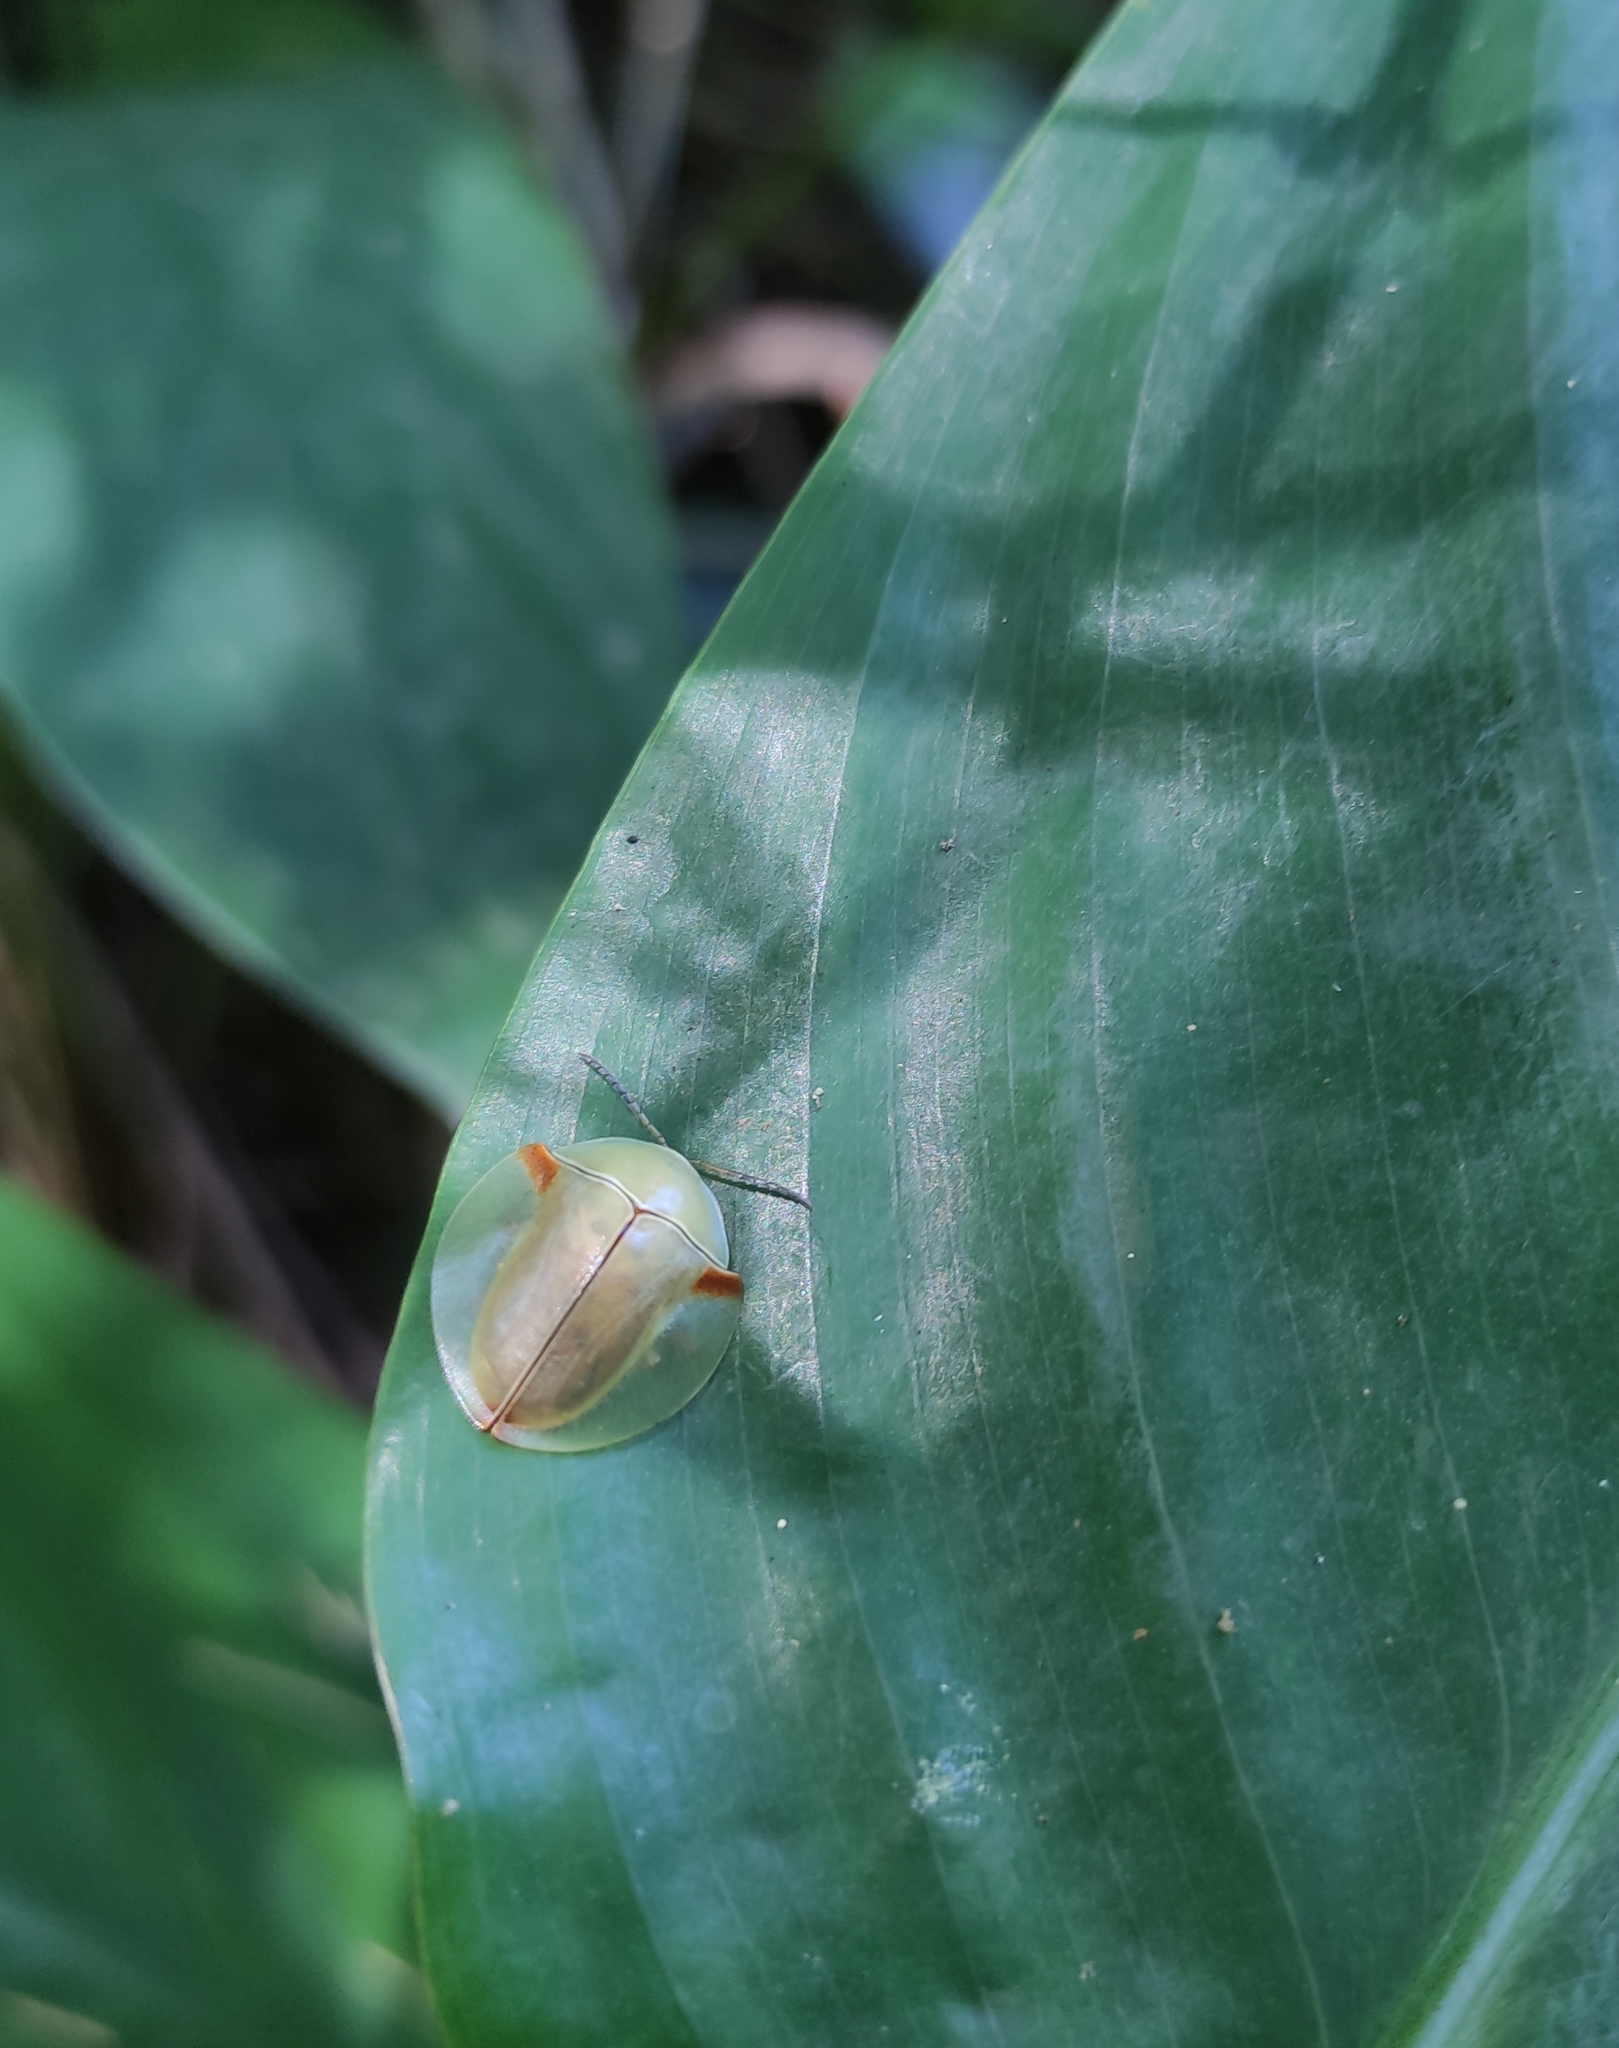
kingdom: Animalia
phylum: Arthropoda
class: Insecta
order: Coleoptera
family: Chrysomelidae
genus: Paraselenis
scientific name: Paraselenis axillaris
